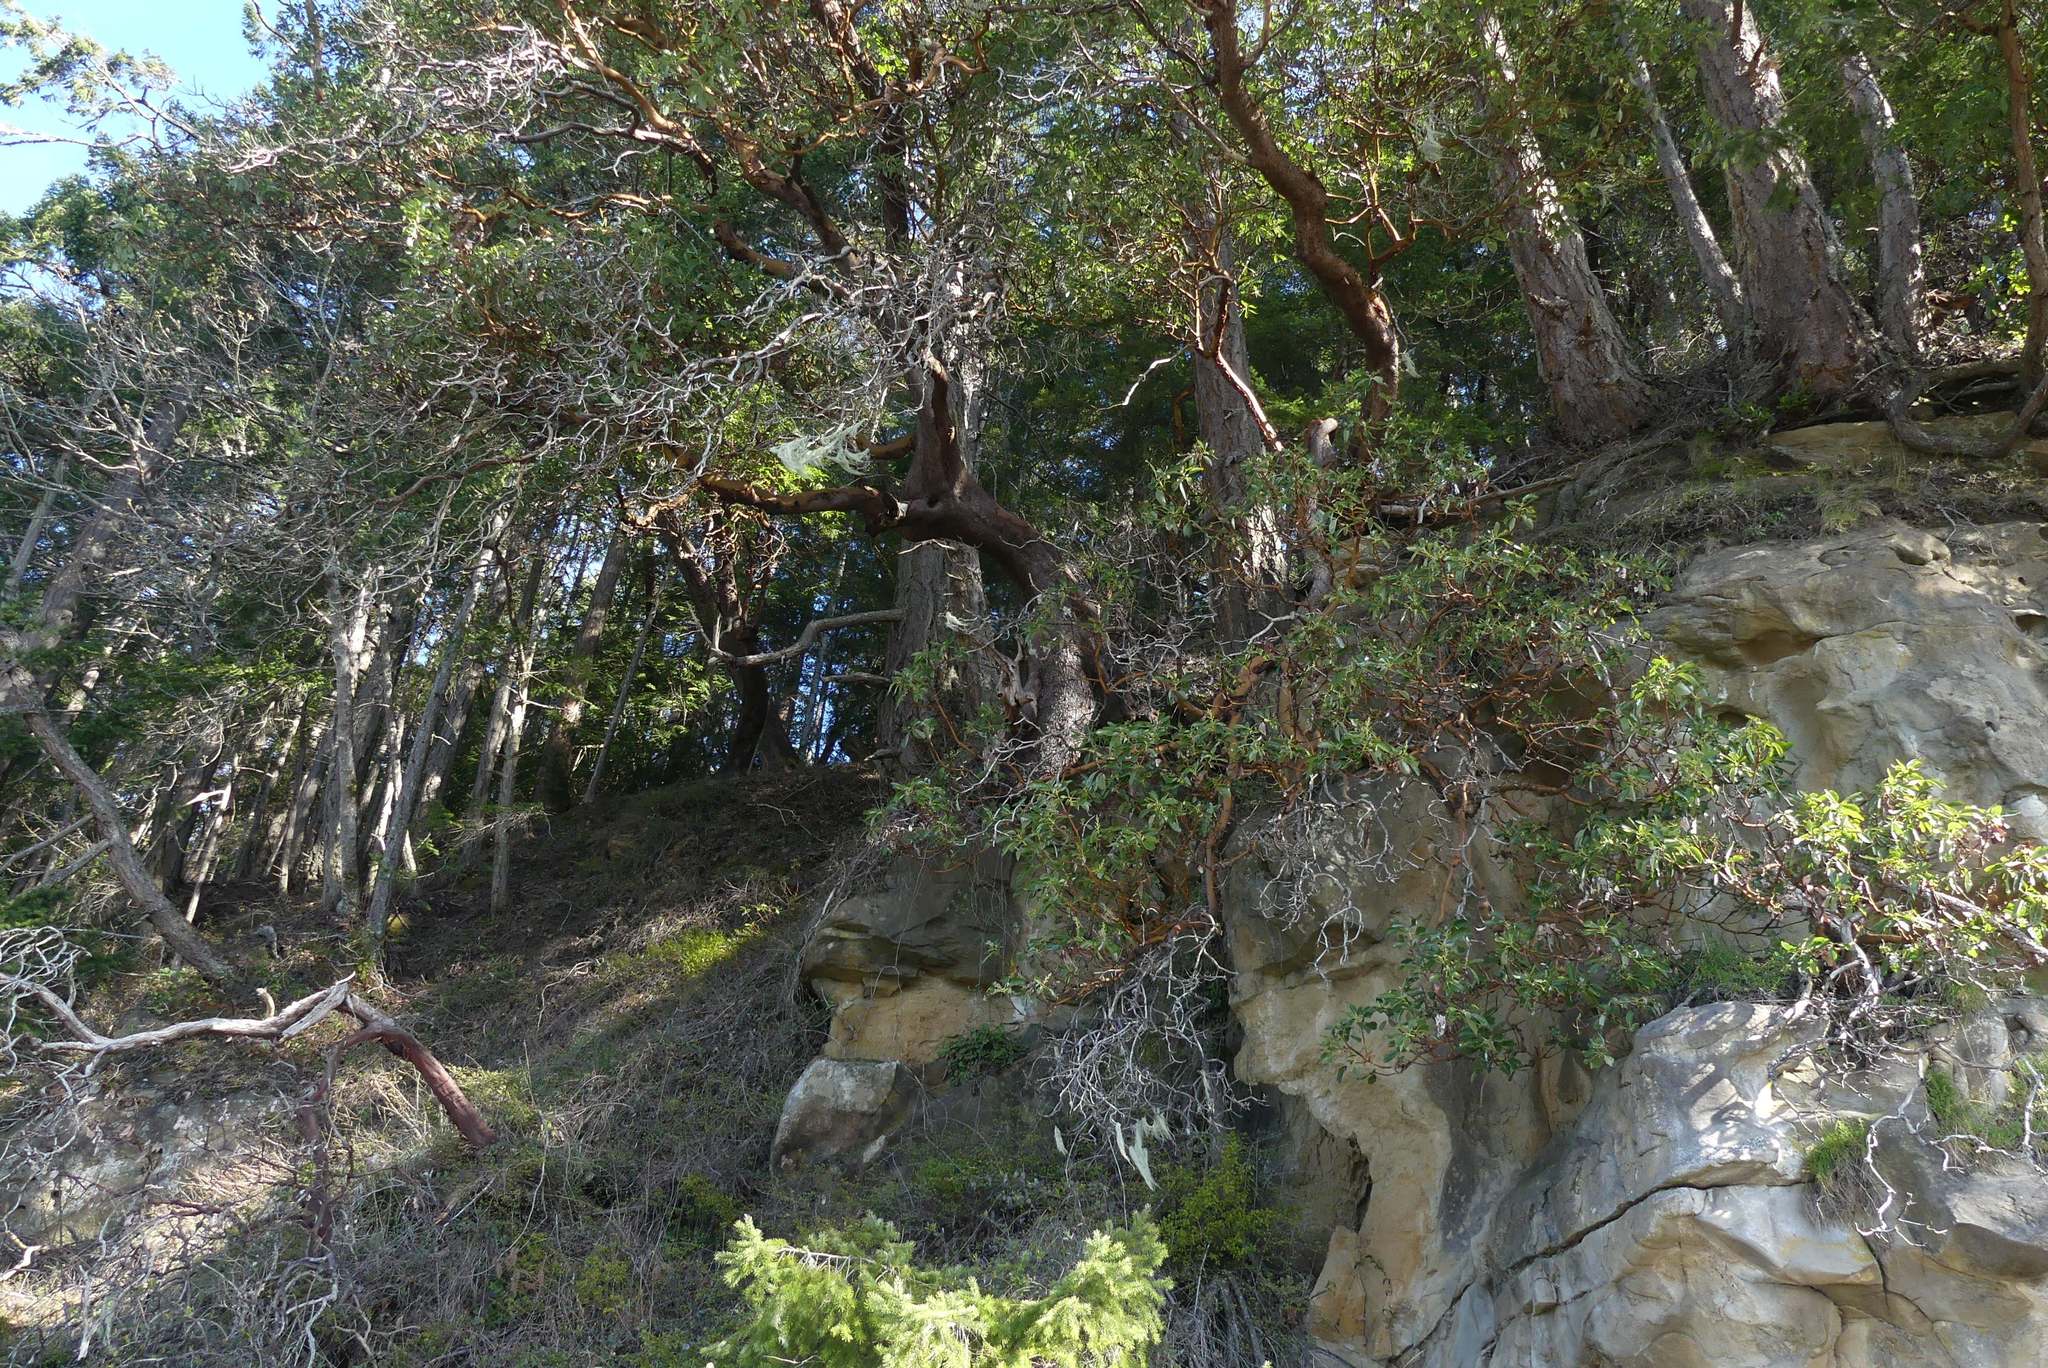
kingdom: Plantae
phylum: Tracheophyta
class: Magnoliopsida
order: Ericales
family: Ericaceae
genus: Arbutus
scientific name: Arbutus menziesii
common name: Pacific madrone
